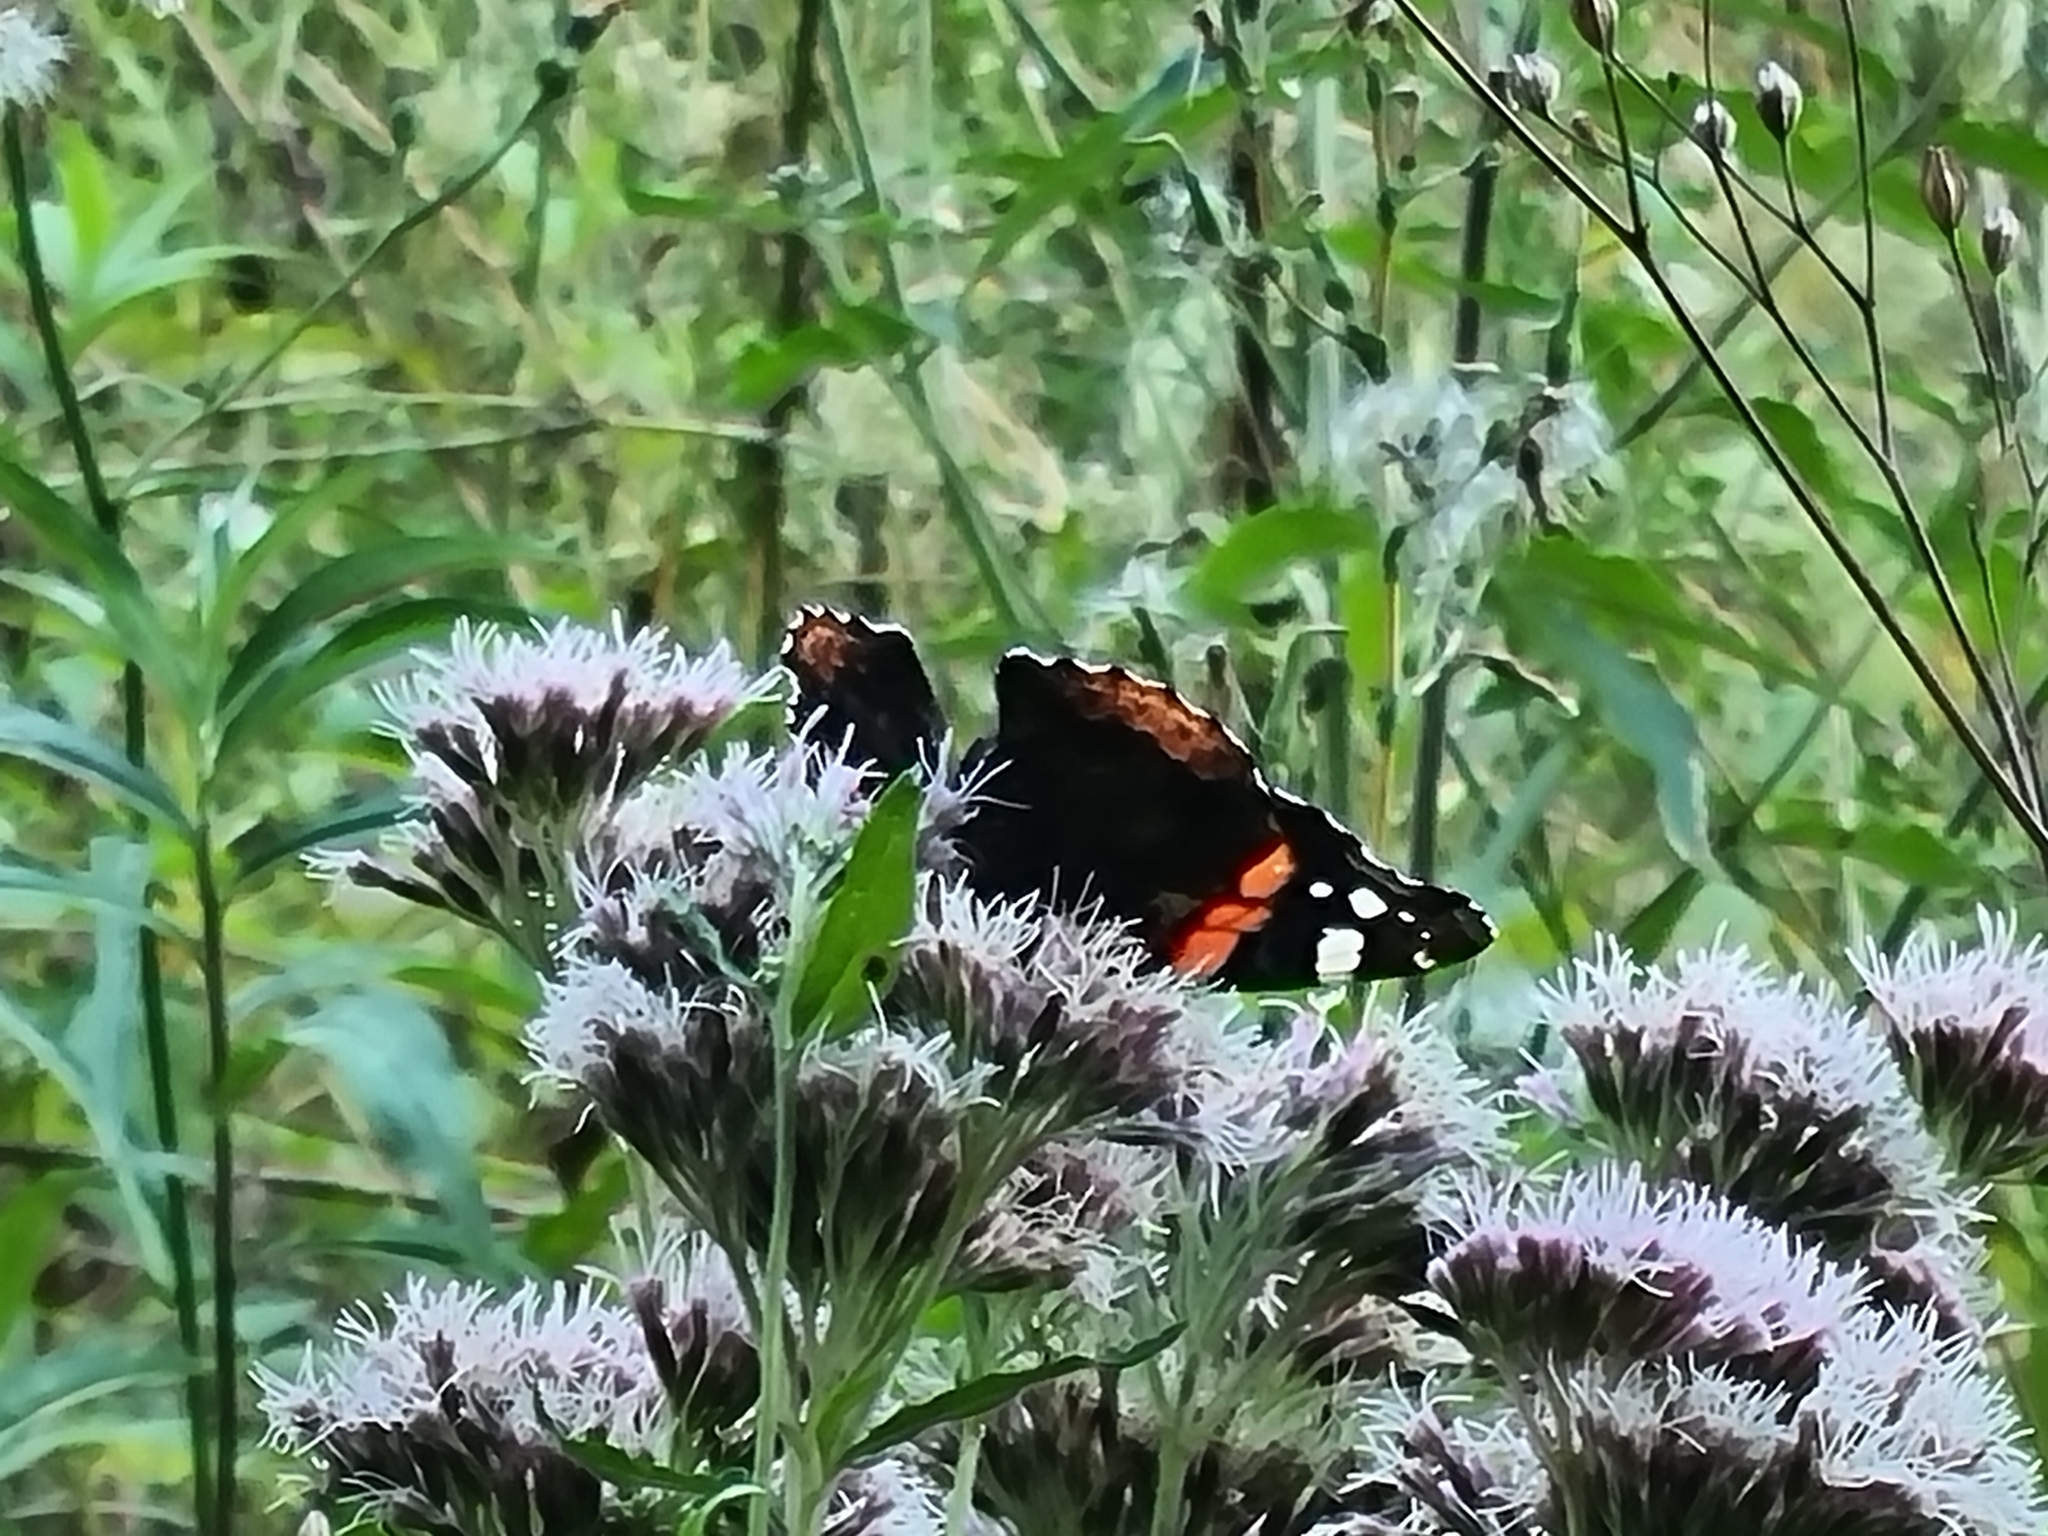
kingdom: Animalia
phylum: Arthropoda
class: Insecta
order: Lepidoptera
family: Nymphalidae
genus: Vanessa
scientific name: Vanessa atalanta
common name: Red admiral
